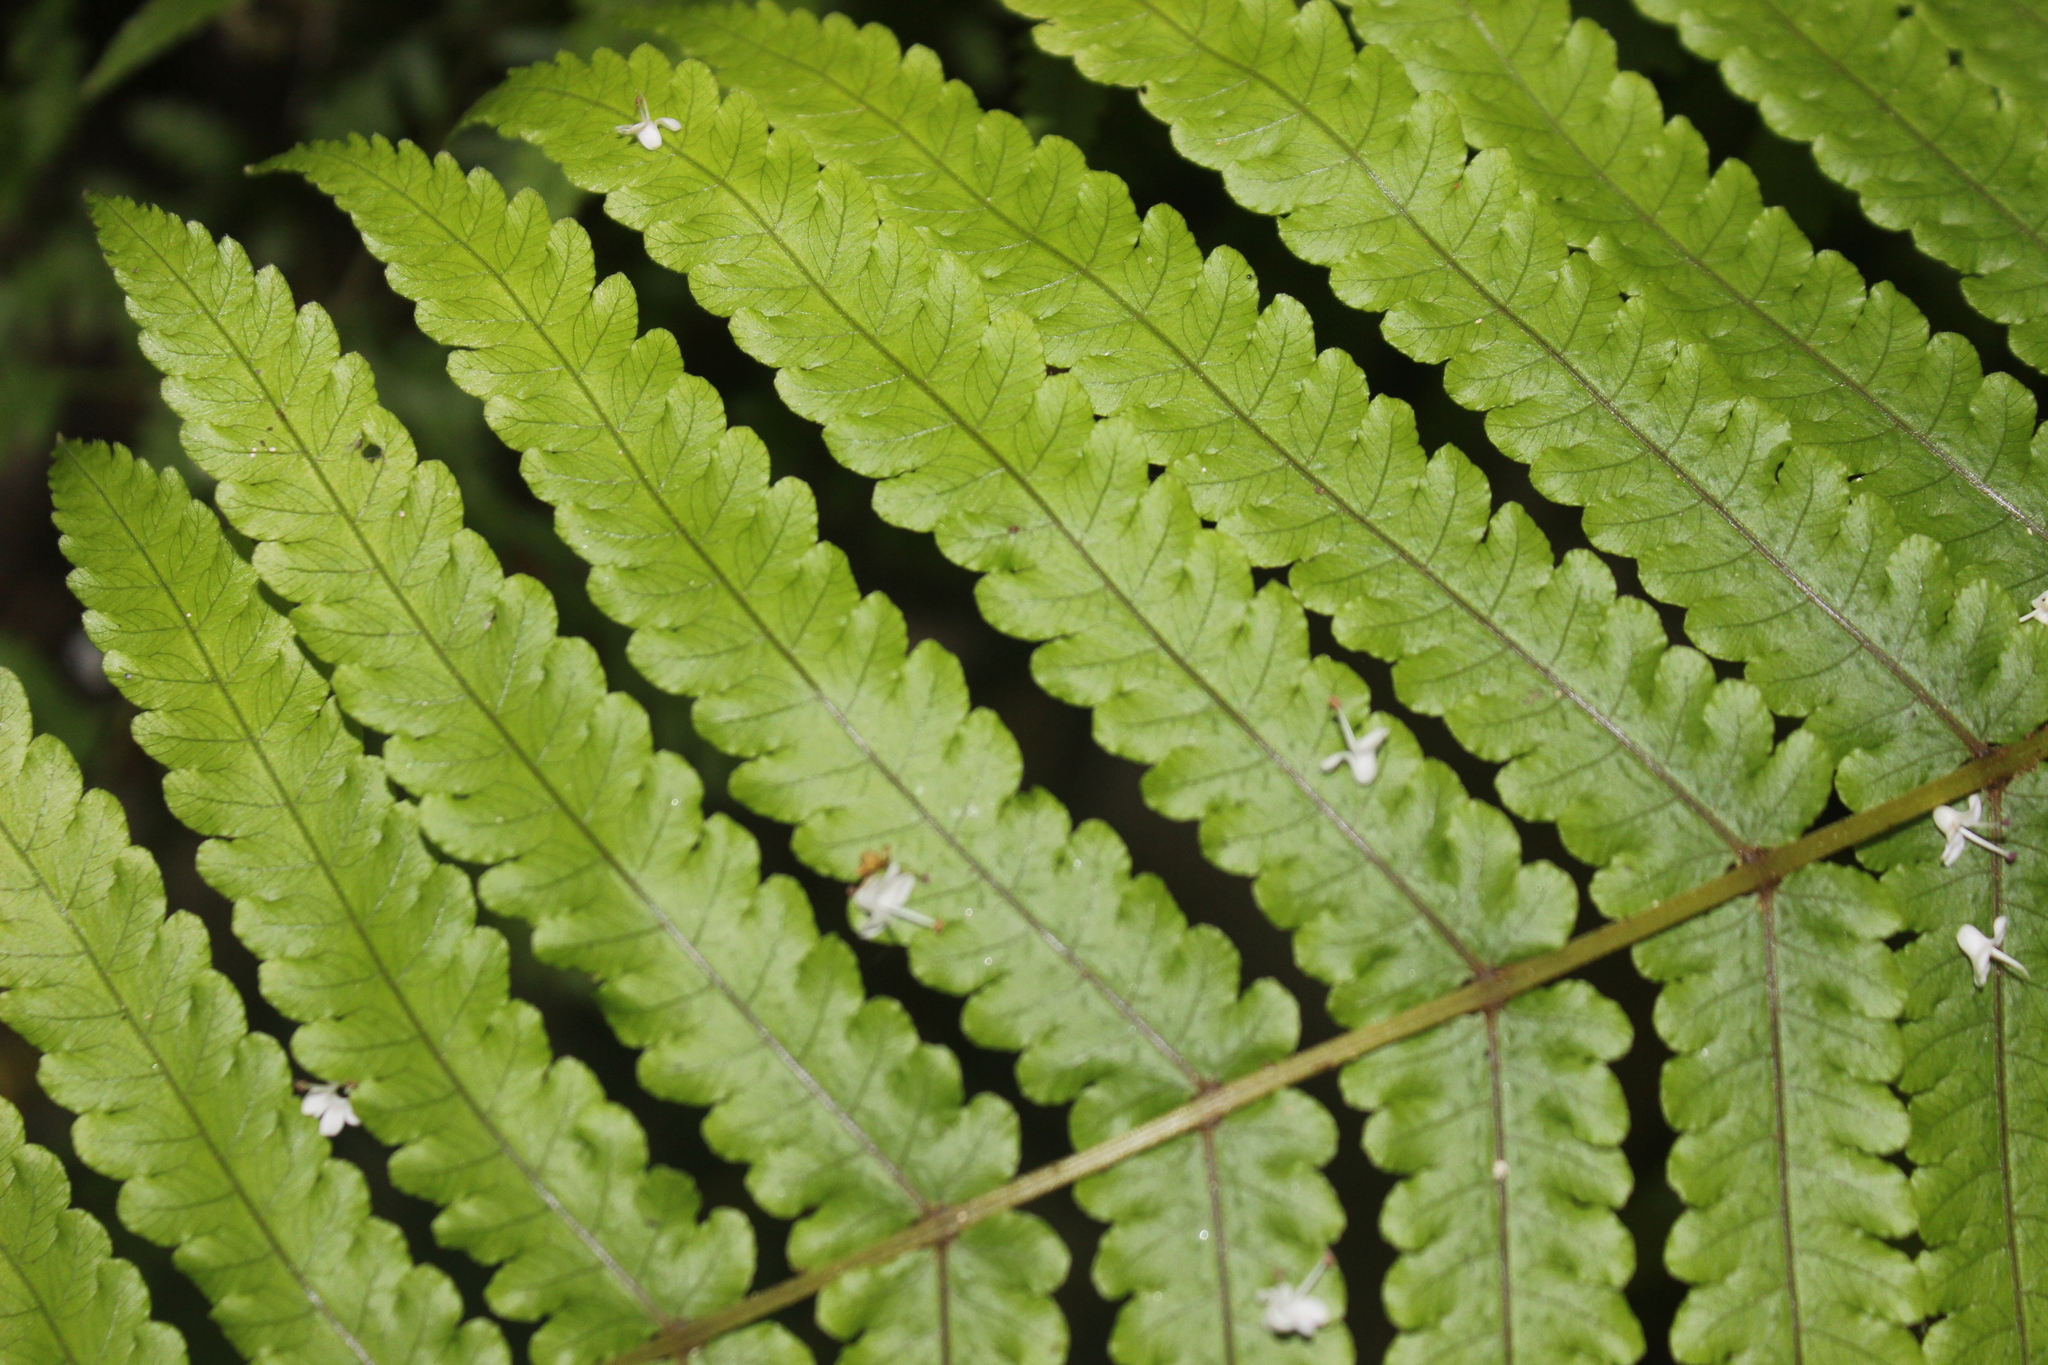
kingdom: Plantae
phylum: Tracheophyta
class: Polypodiopsida
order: Polypodiales
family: Thelypteridaceae
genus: Pakau
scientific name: Pakau pennigera
